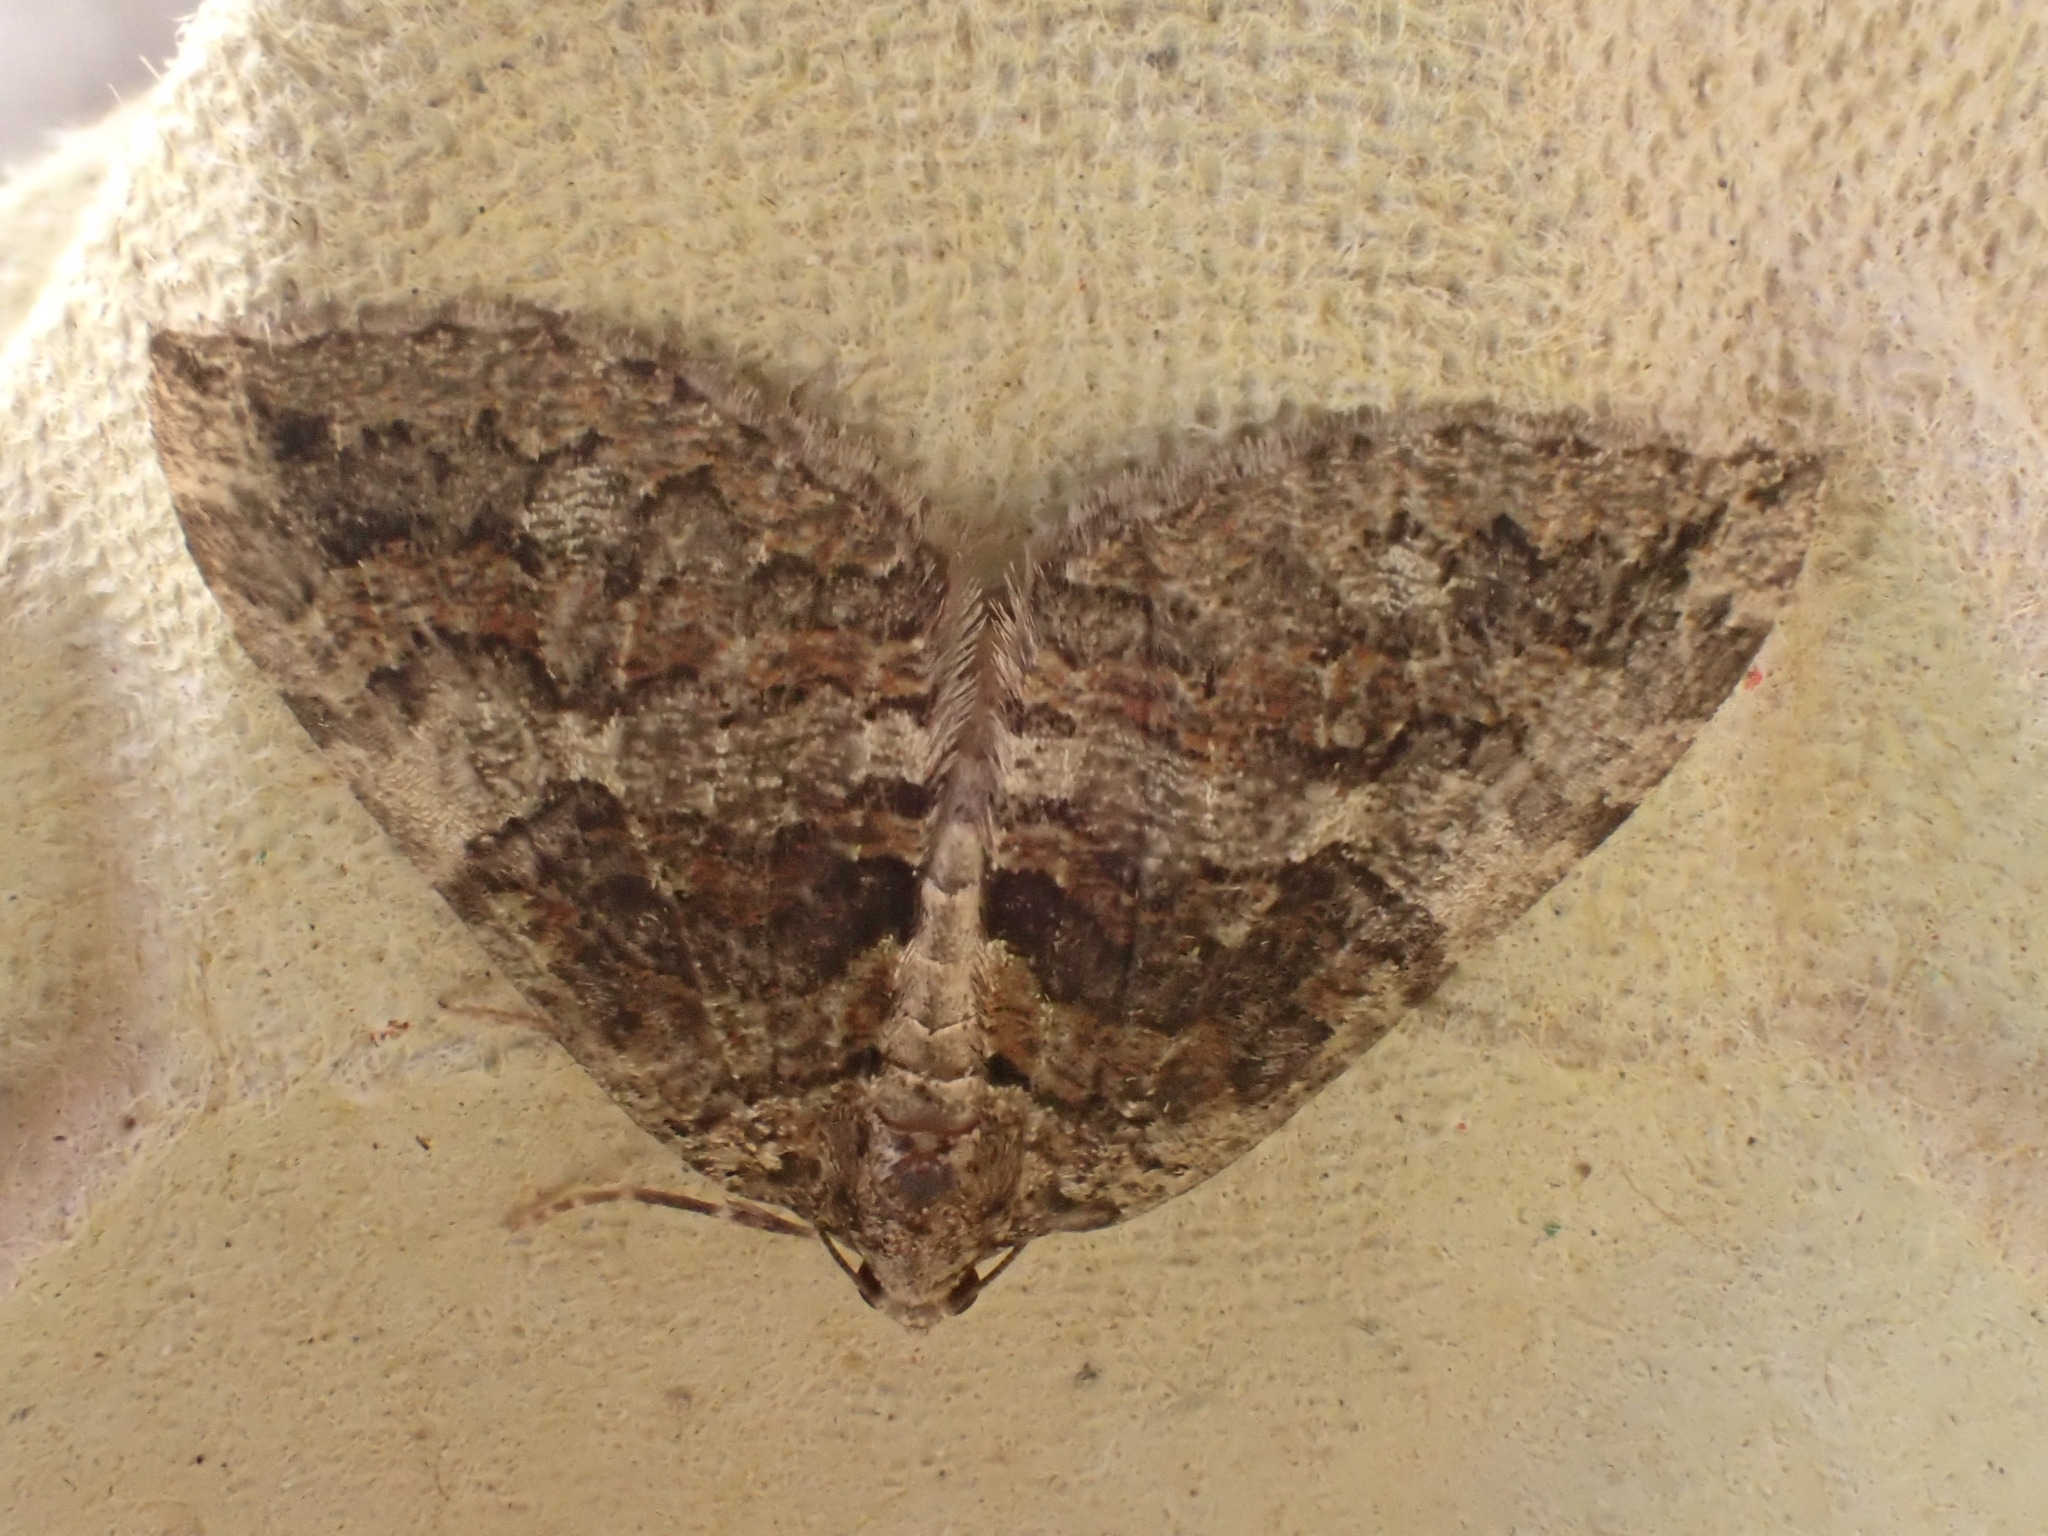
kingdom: Animalia
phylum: Arthropoda
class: Insecta
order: Lepidoptera
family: Geometridae
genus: Hydriomena
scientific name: Hydriomena furcata
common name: July highflyer
